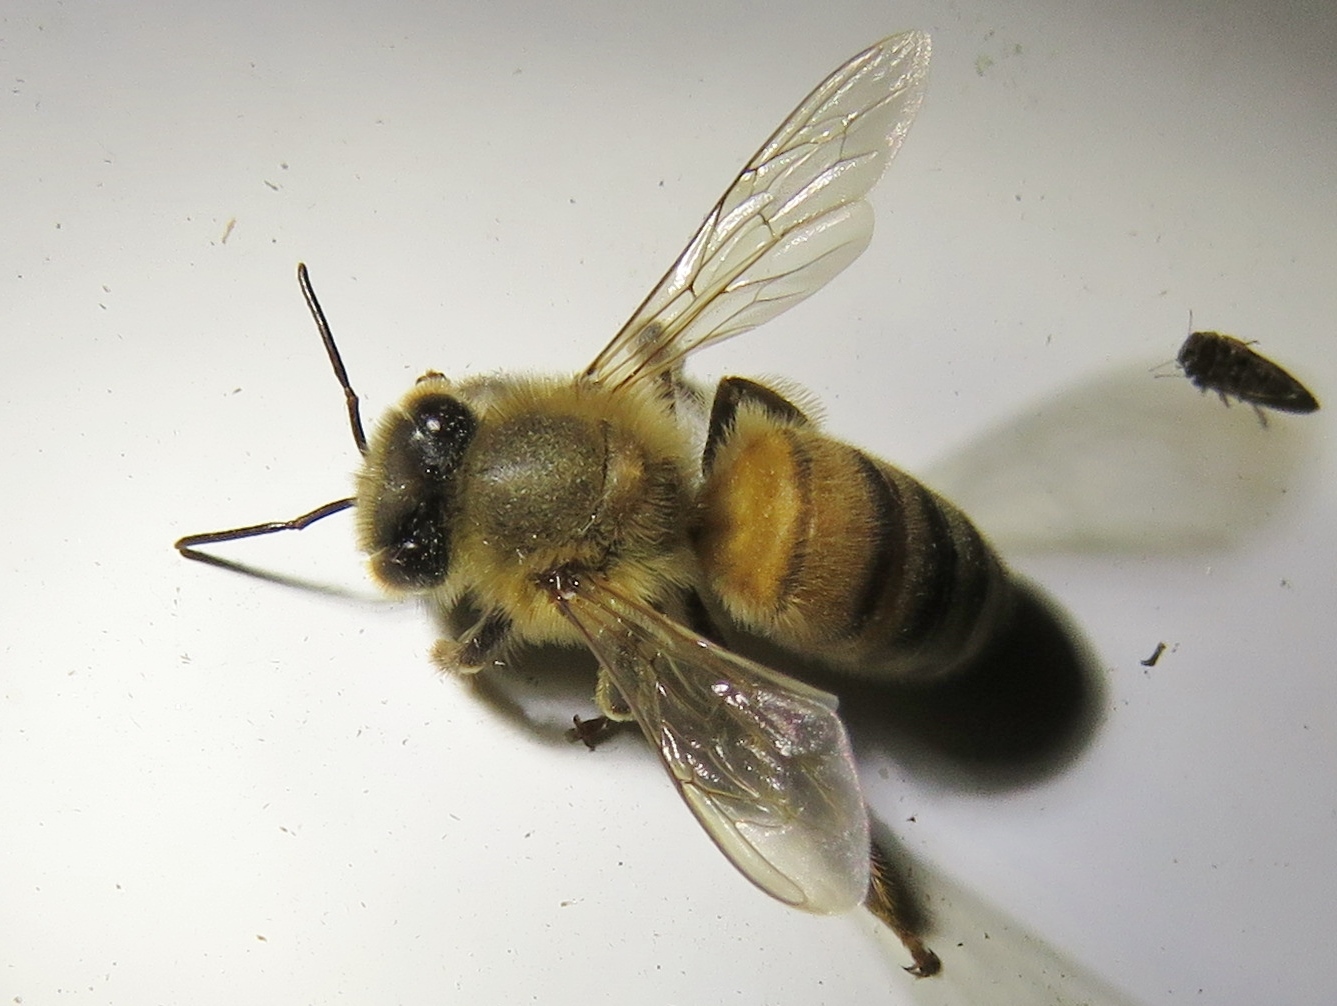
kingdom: Animalia
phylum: Arthropoda
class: Insecta
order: Hymenoptera
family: Apidae
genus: Apis
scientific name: Apis mellifera
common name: Honey bee
